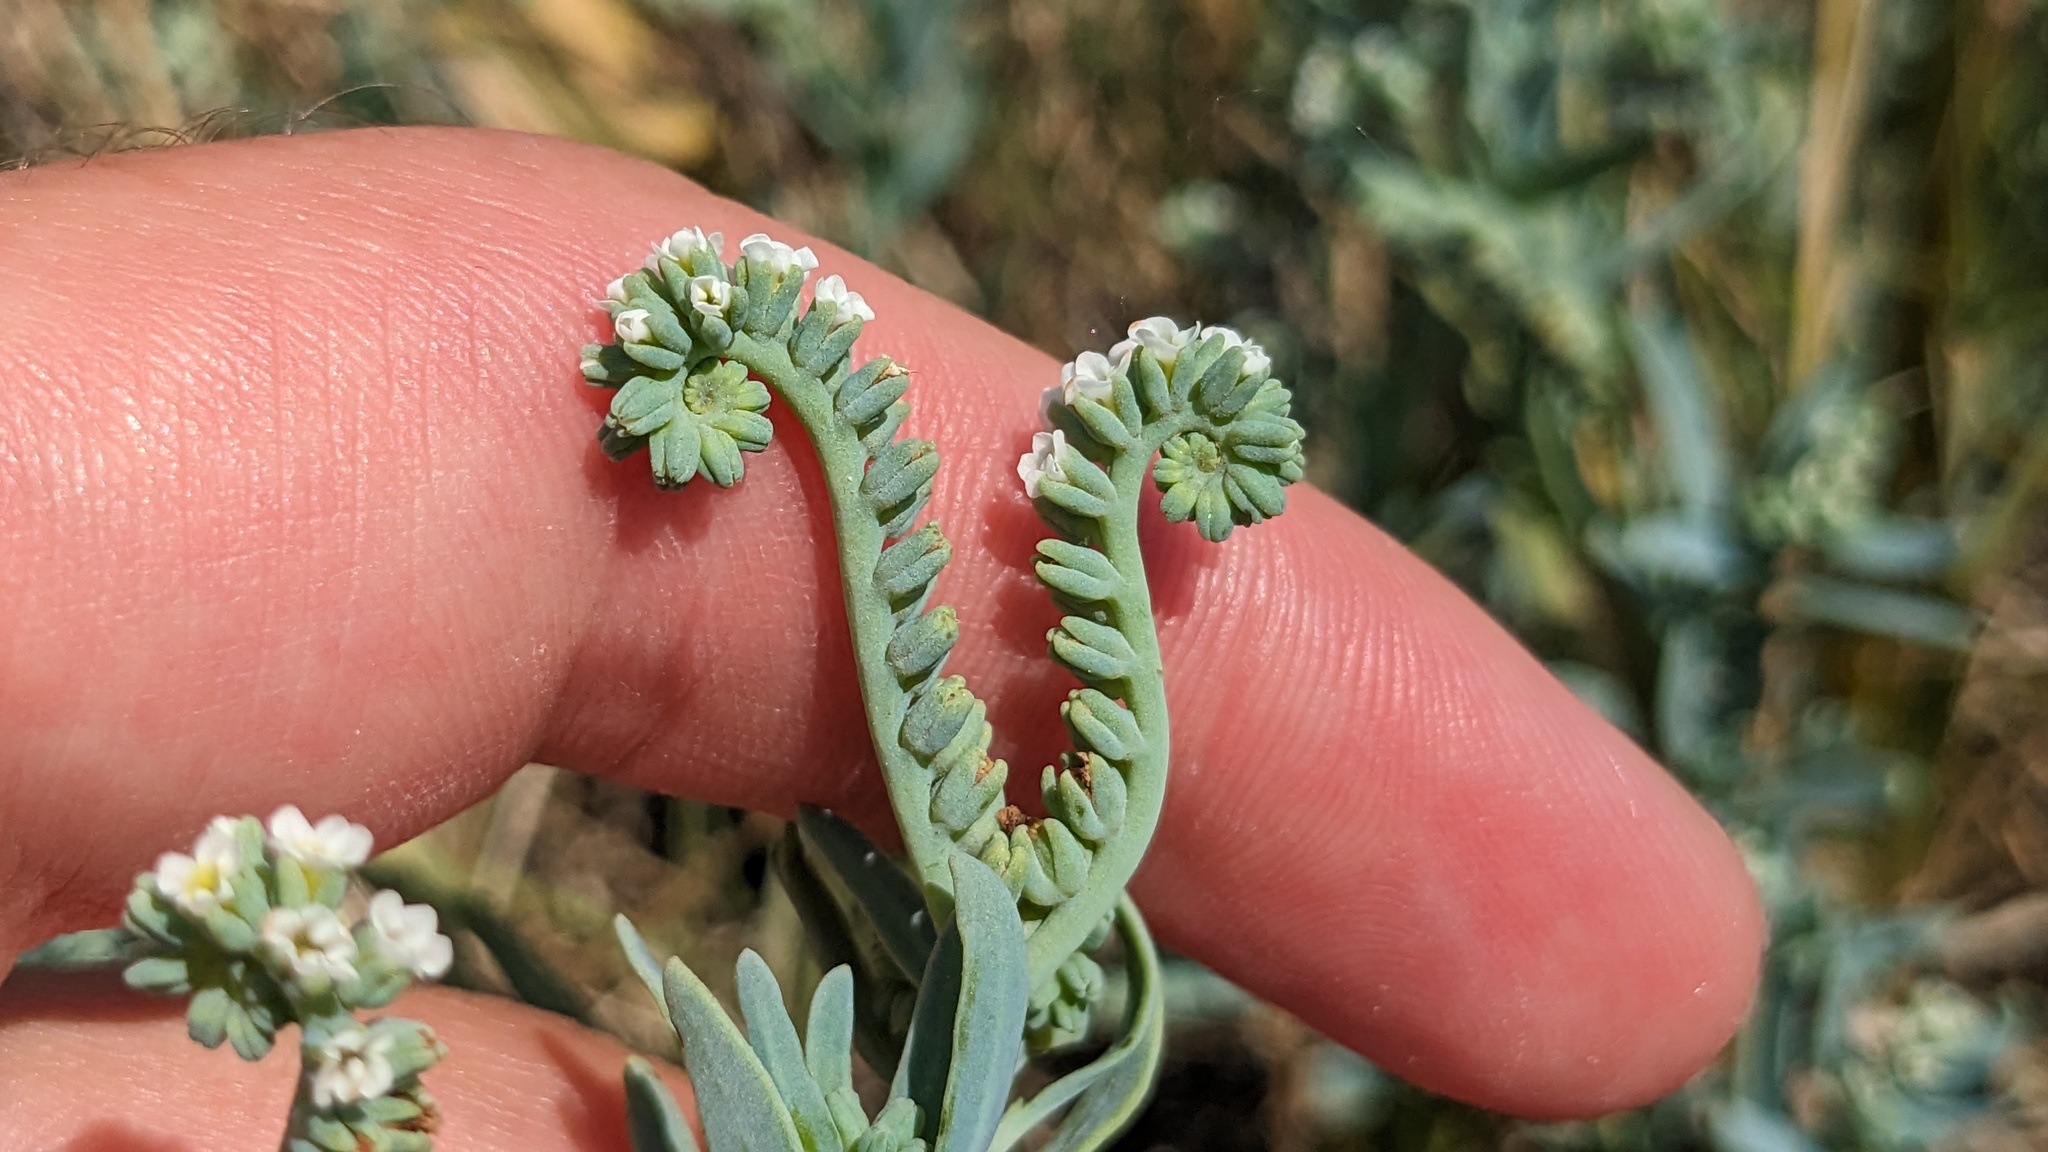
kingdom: Plantae
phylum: Tracheophyta
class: Magnoliopsida
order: Boraginales
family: Heliotropiaceae
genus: Heliotropium
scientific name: Heliotropium curassavicum
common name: Seaside heliotrope
